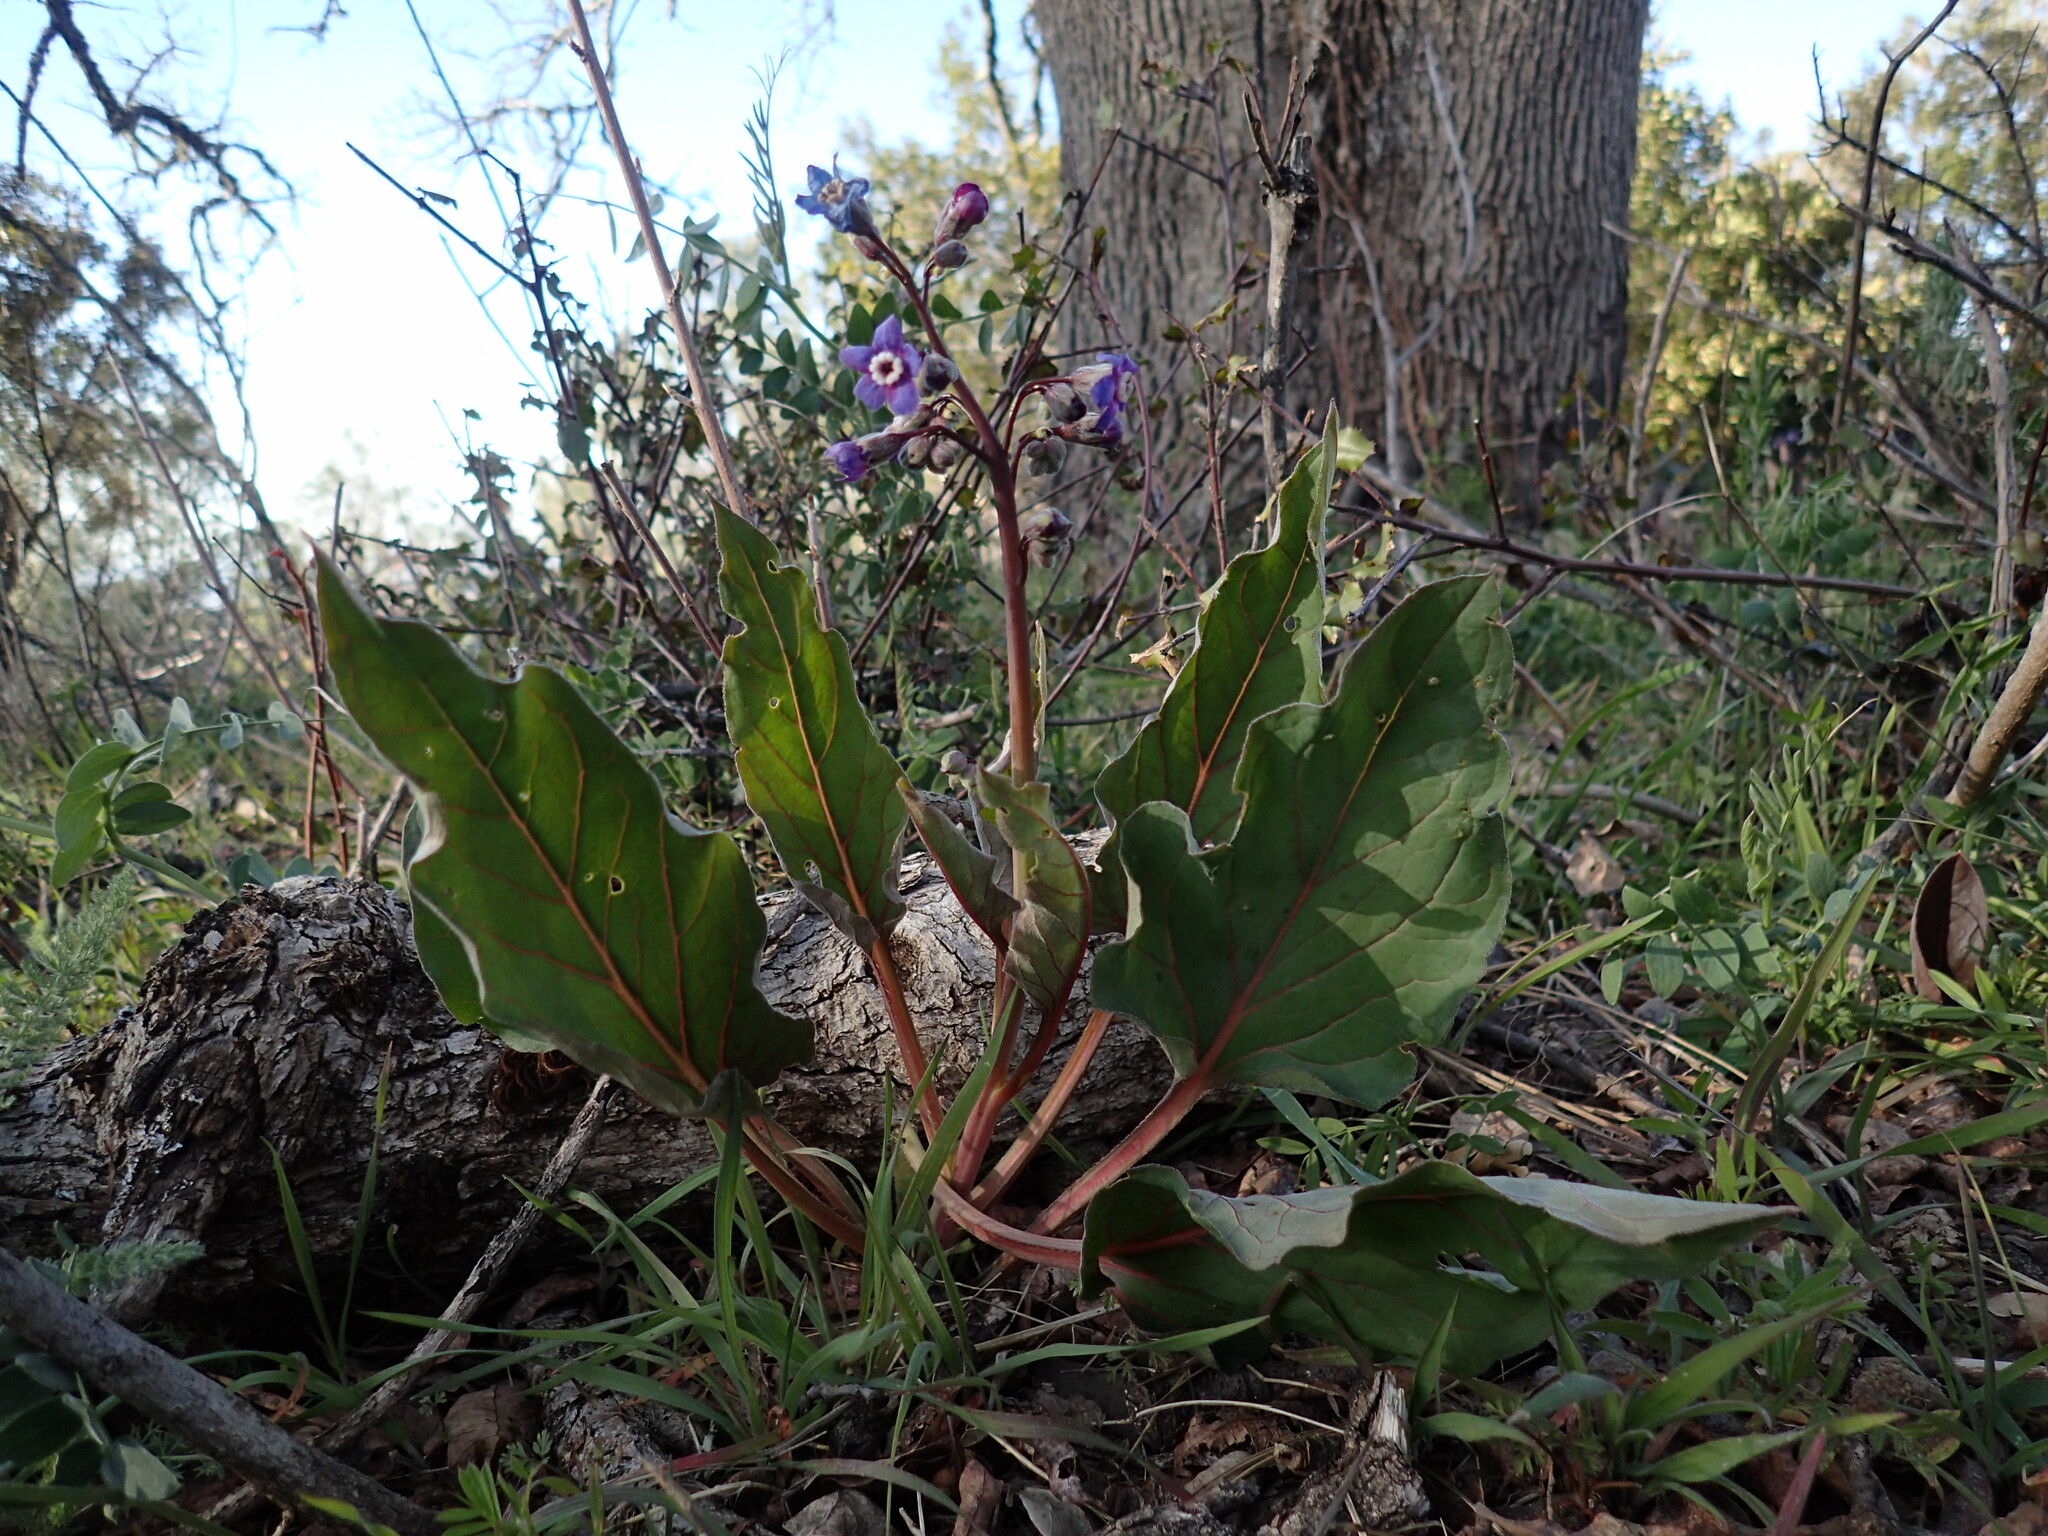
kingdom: Plantae
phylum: Tracheophyta
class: Magnoliopsida
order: Boraginales
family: Boraginaceae
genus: Adelinia
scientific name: Adelinia grande
